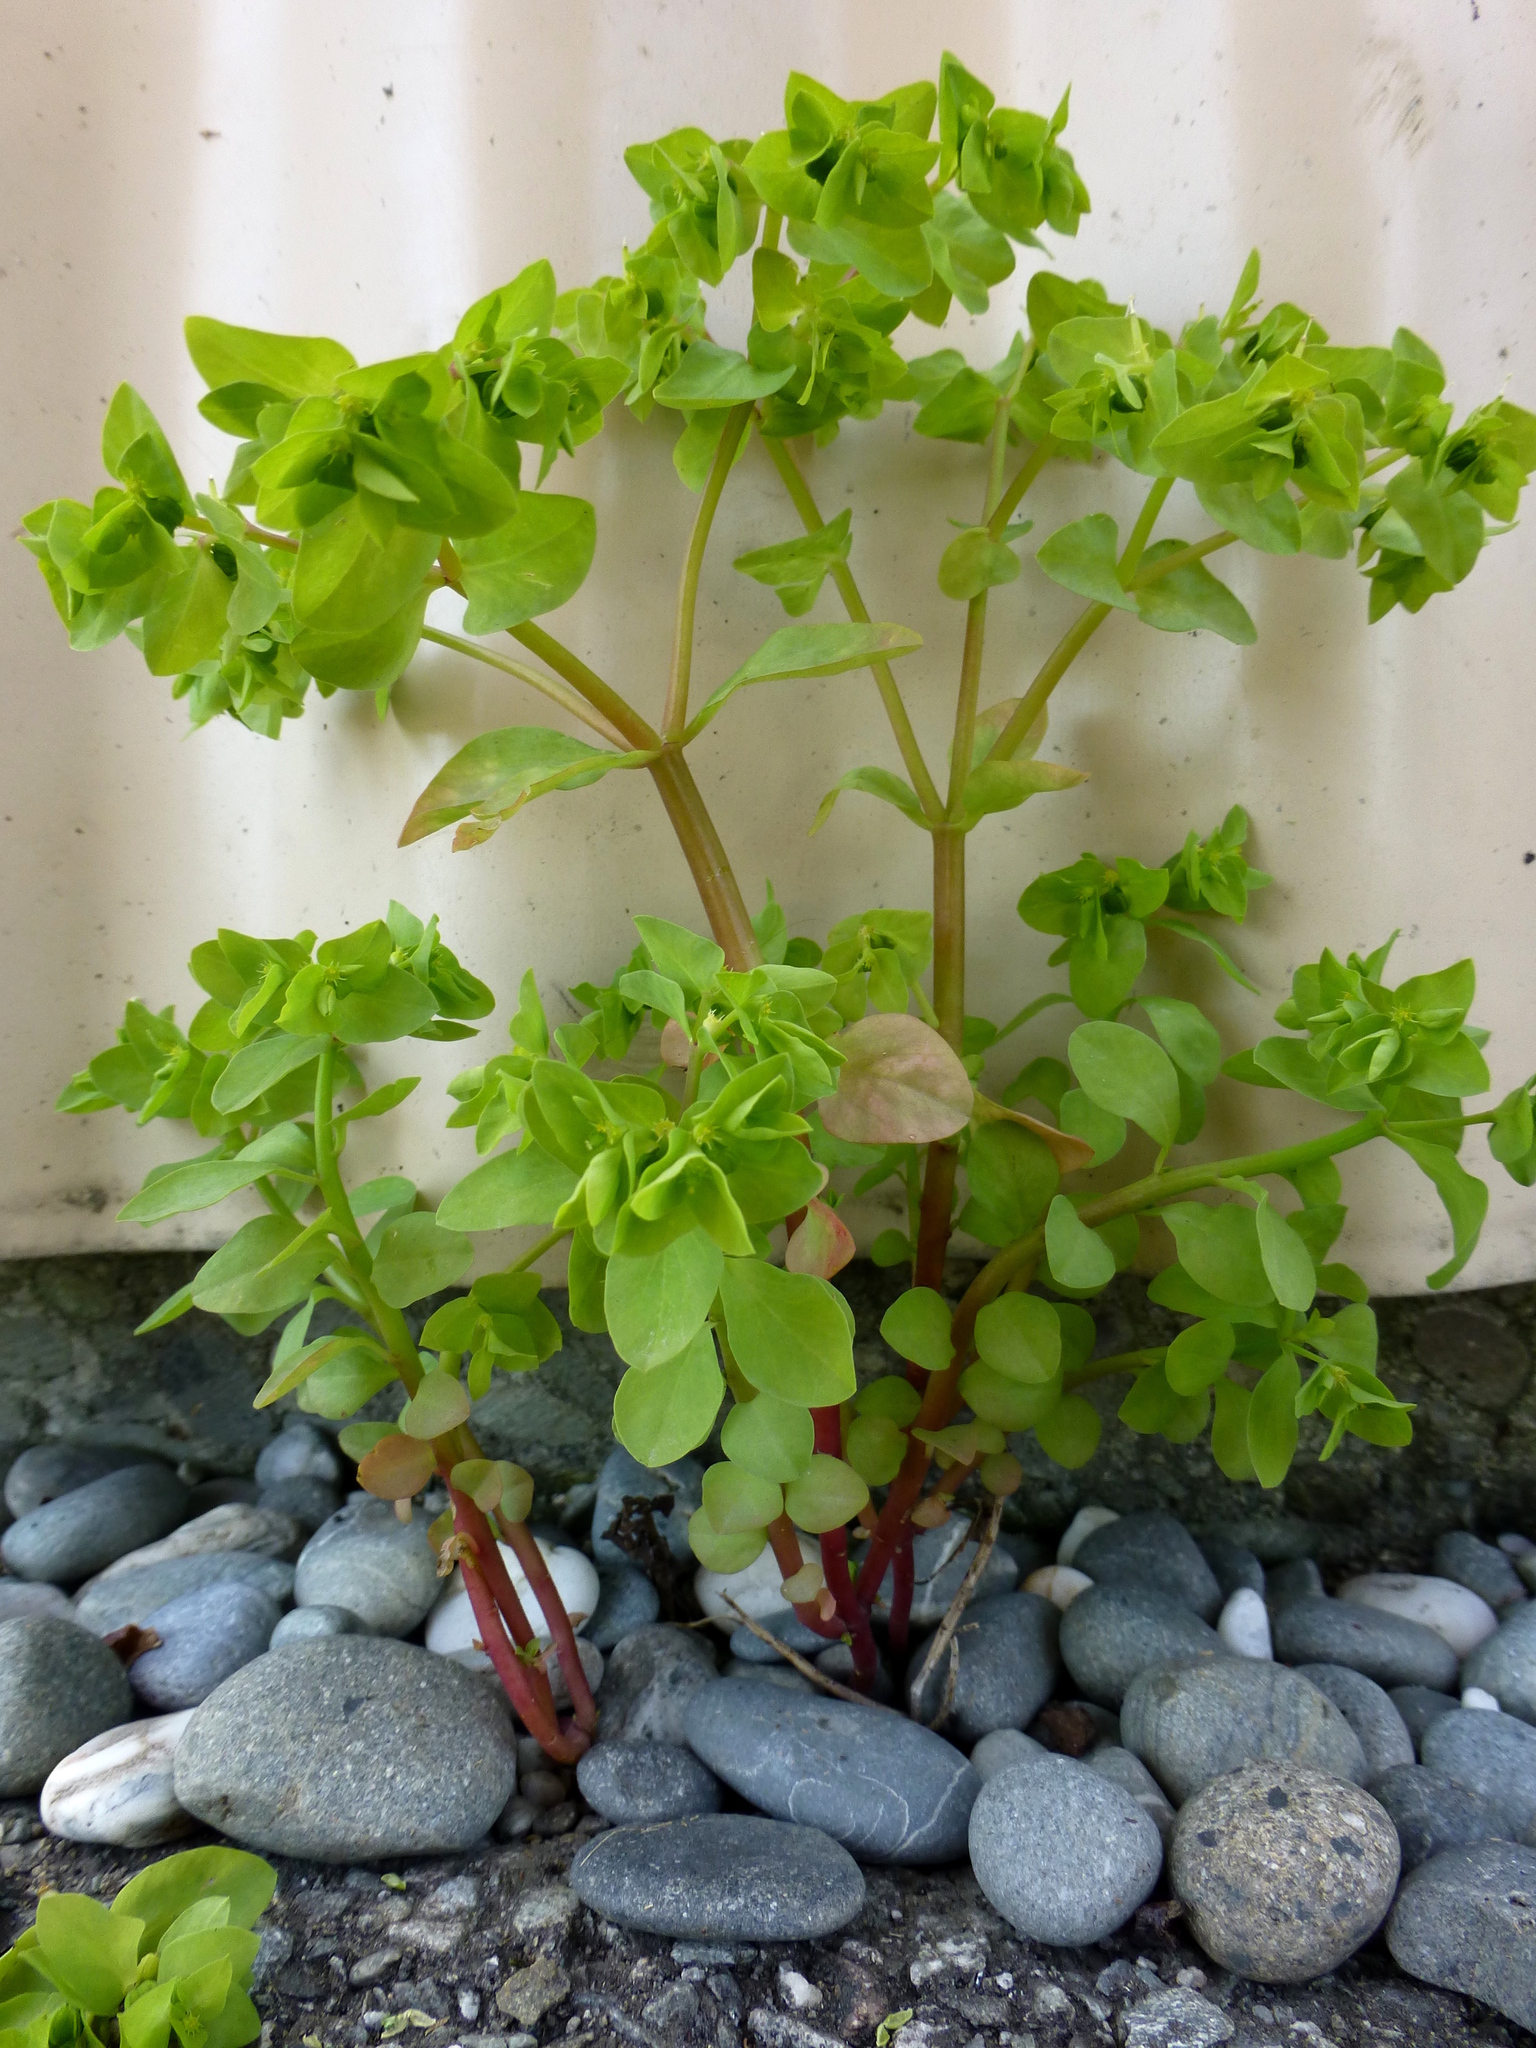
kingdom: Plantae
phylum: Tracheophyta
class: Magnoliopsida
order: Malpighiales
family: Euphorbiaceae
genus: Euphorbia
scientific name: Euphorbia peplus
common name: Petty spurge
